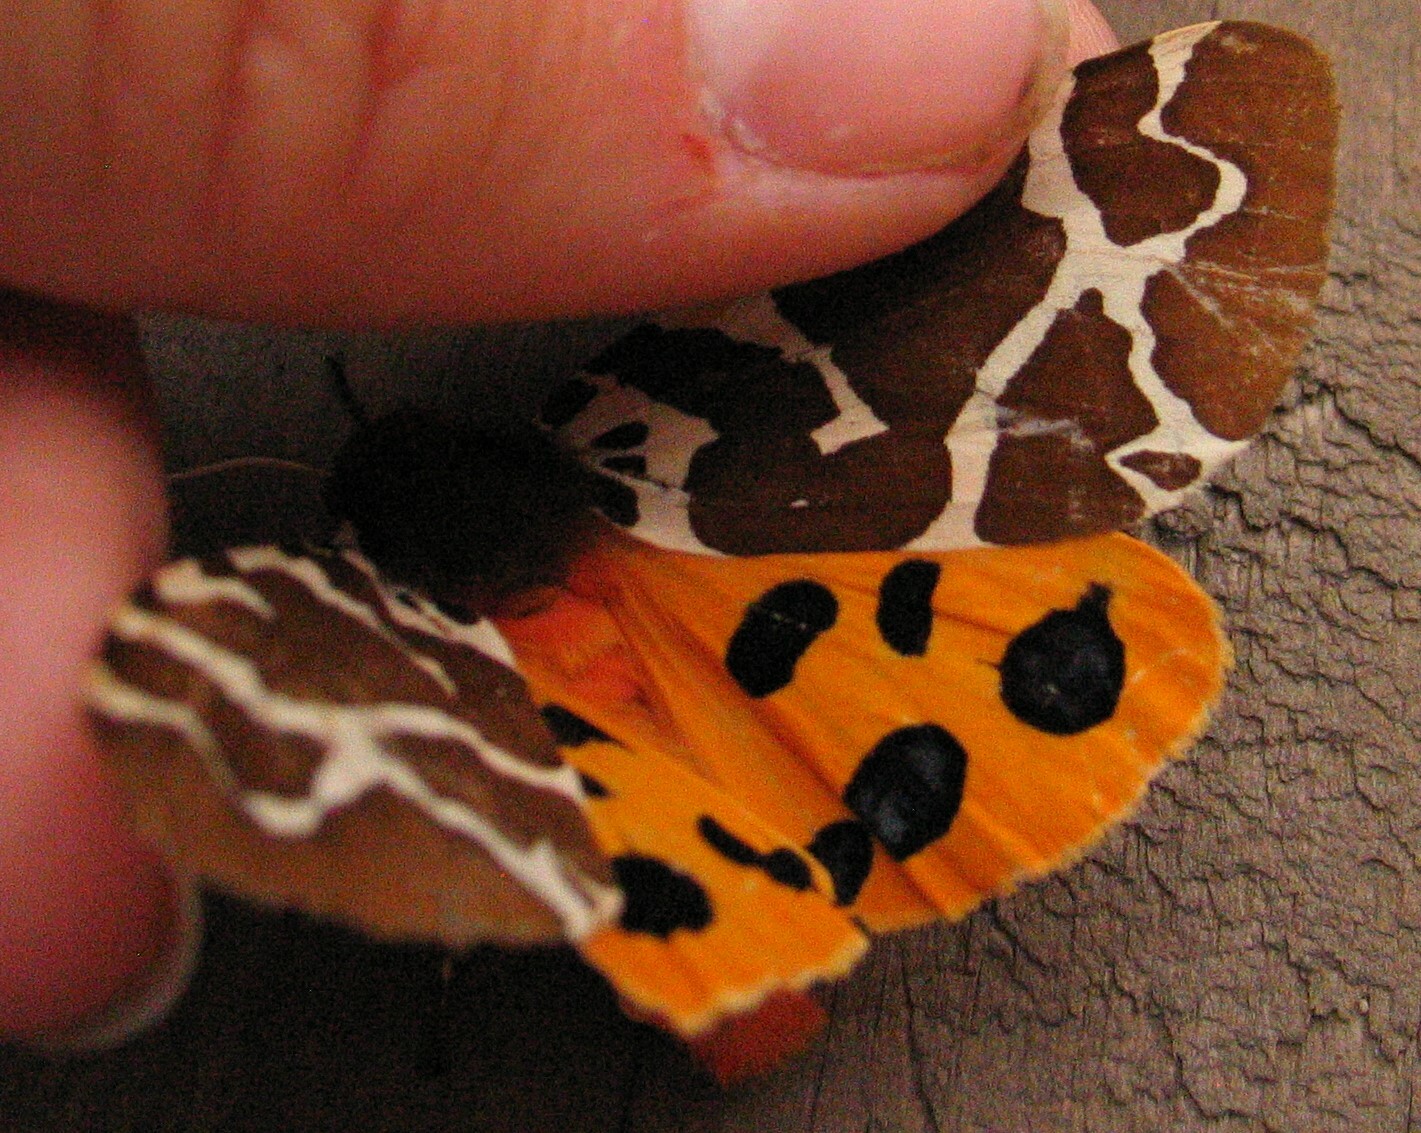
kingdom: Animalia
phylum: Arthropoda
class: Insecta
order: Lepidoptera
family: Erebidae
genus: Arctia
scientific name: Arctia caja
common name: Garden tiger
